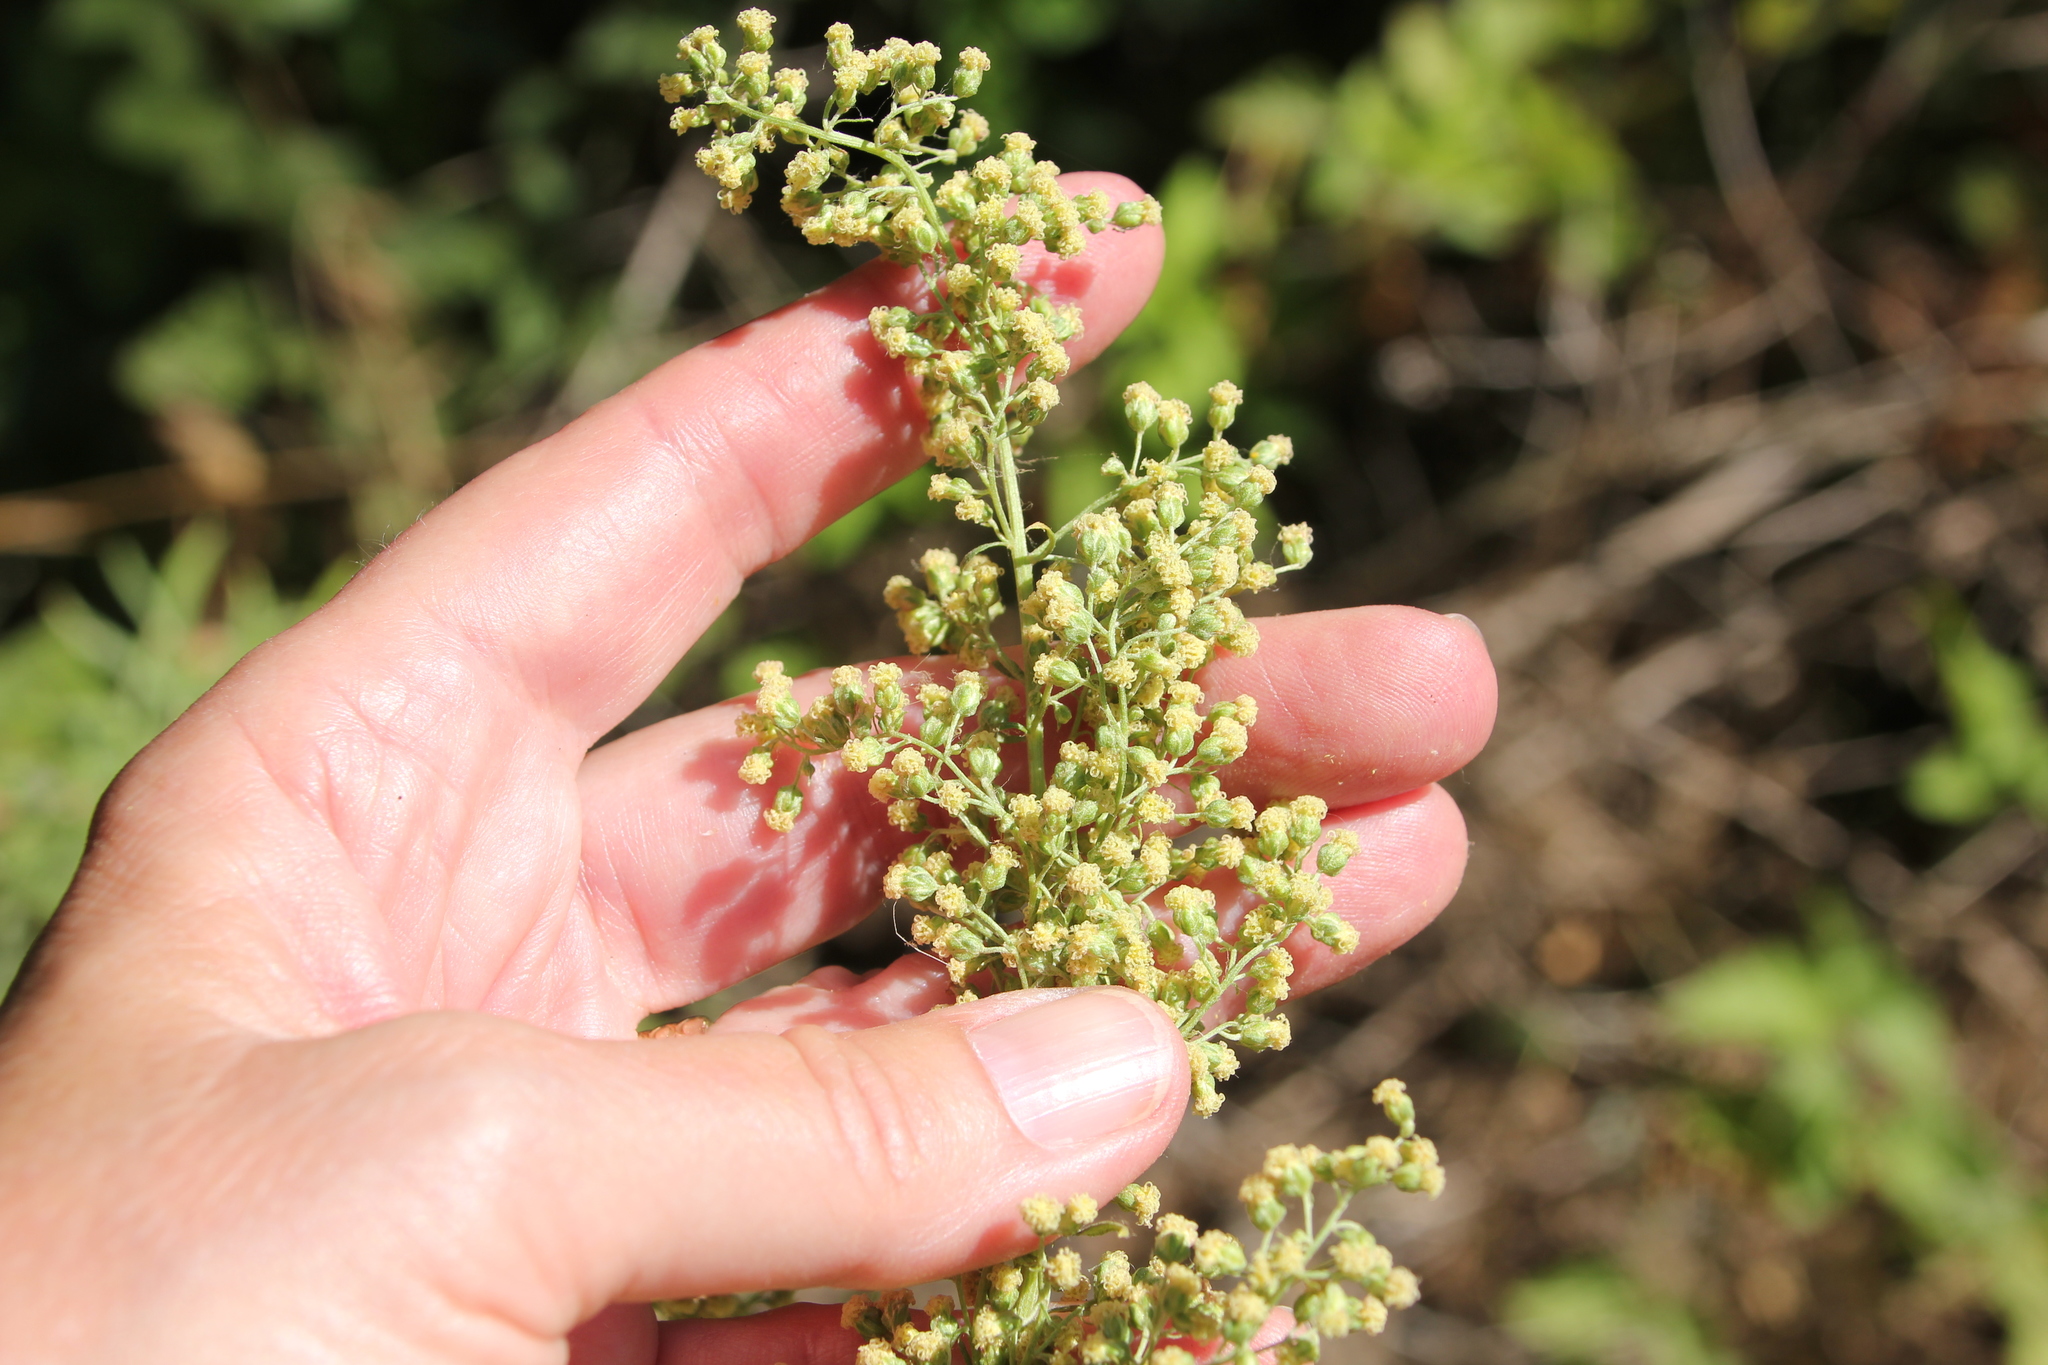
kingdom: Plantae
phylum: Tracheophyta
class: Magnoliopsida
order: Asterales
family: Asteraceae
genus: Artemisia
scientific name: Artemisia dracunculus
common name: Tarragon
